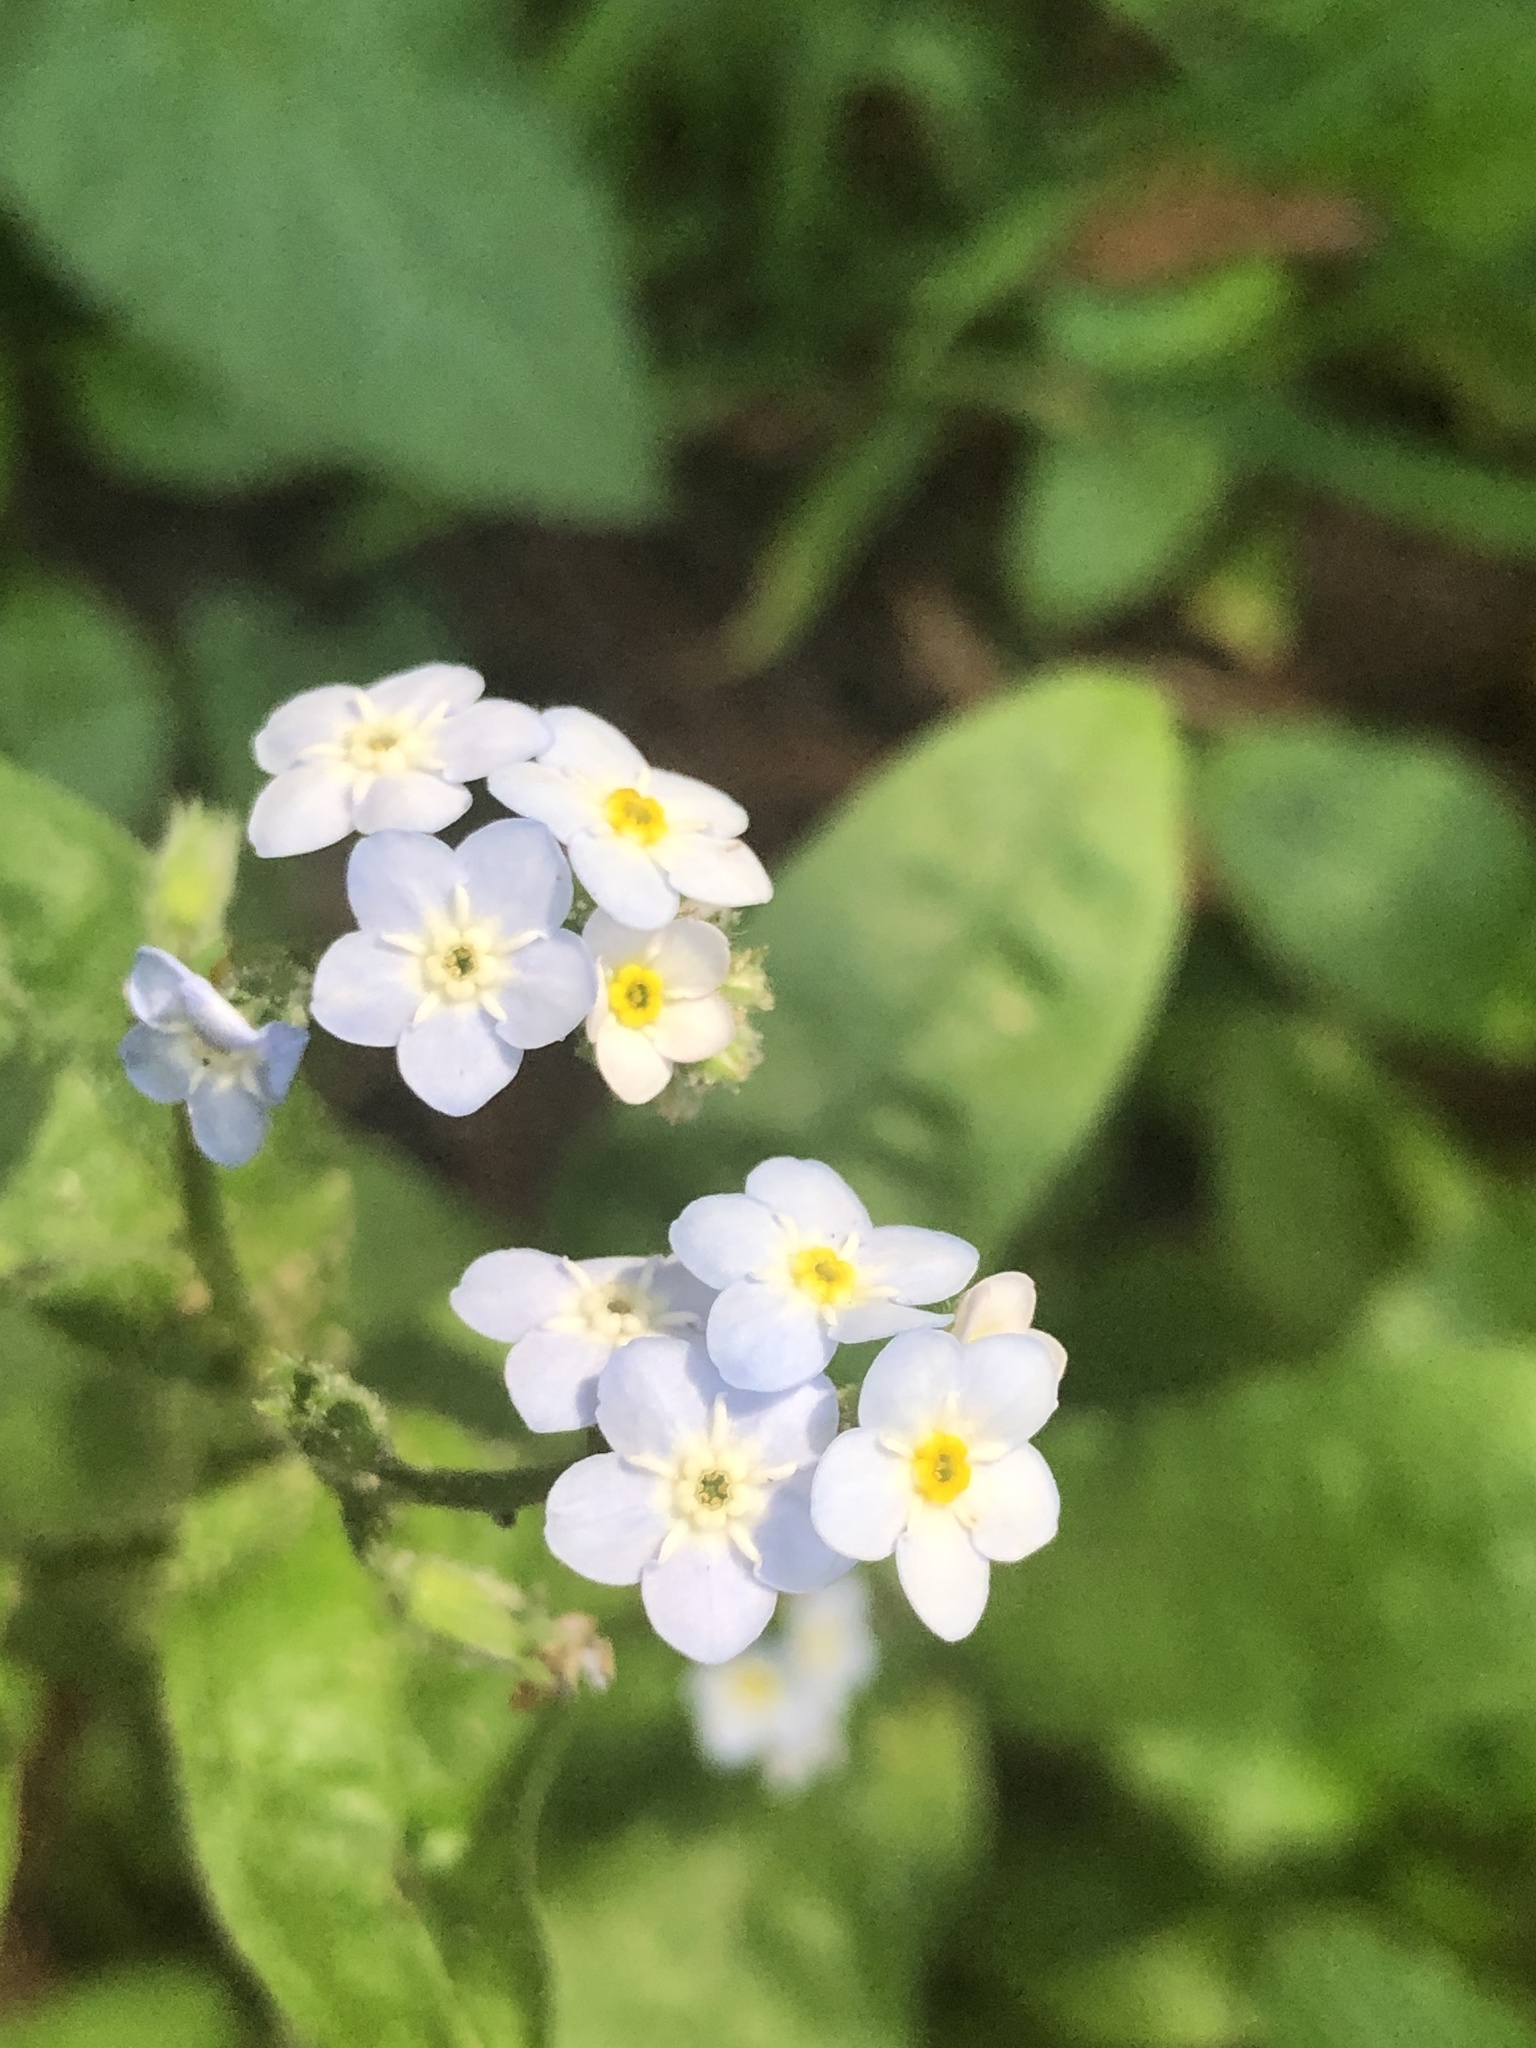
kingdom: Plantae
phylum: Tracheophyta
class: Magnoliopsida
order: Boraginales
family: Boraginaceae
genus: Myosotis
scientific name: Myosotis latifolia
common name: Broadleaf forget-me-not
